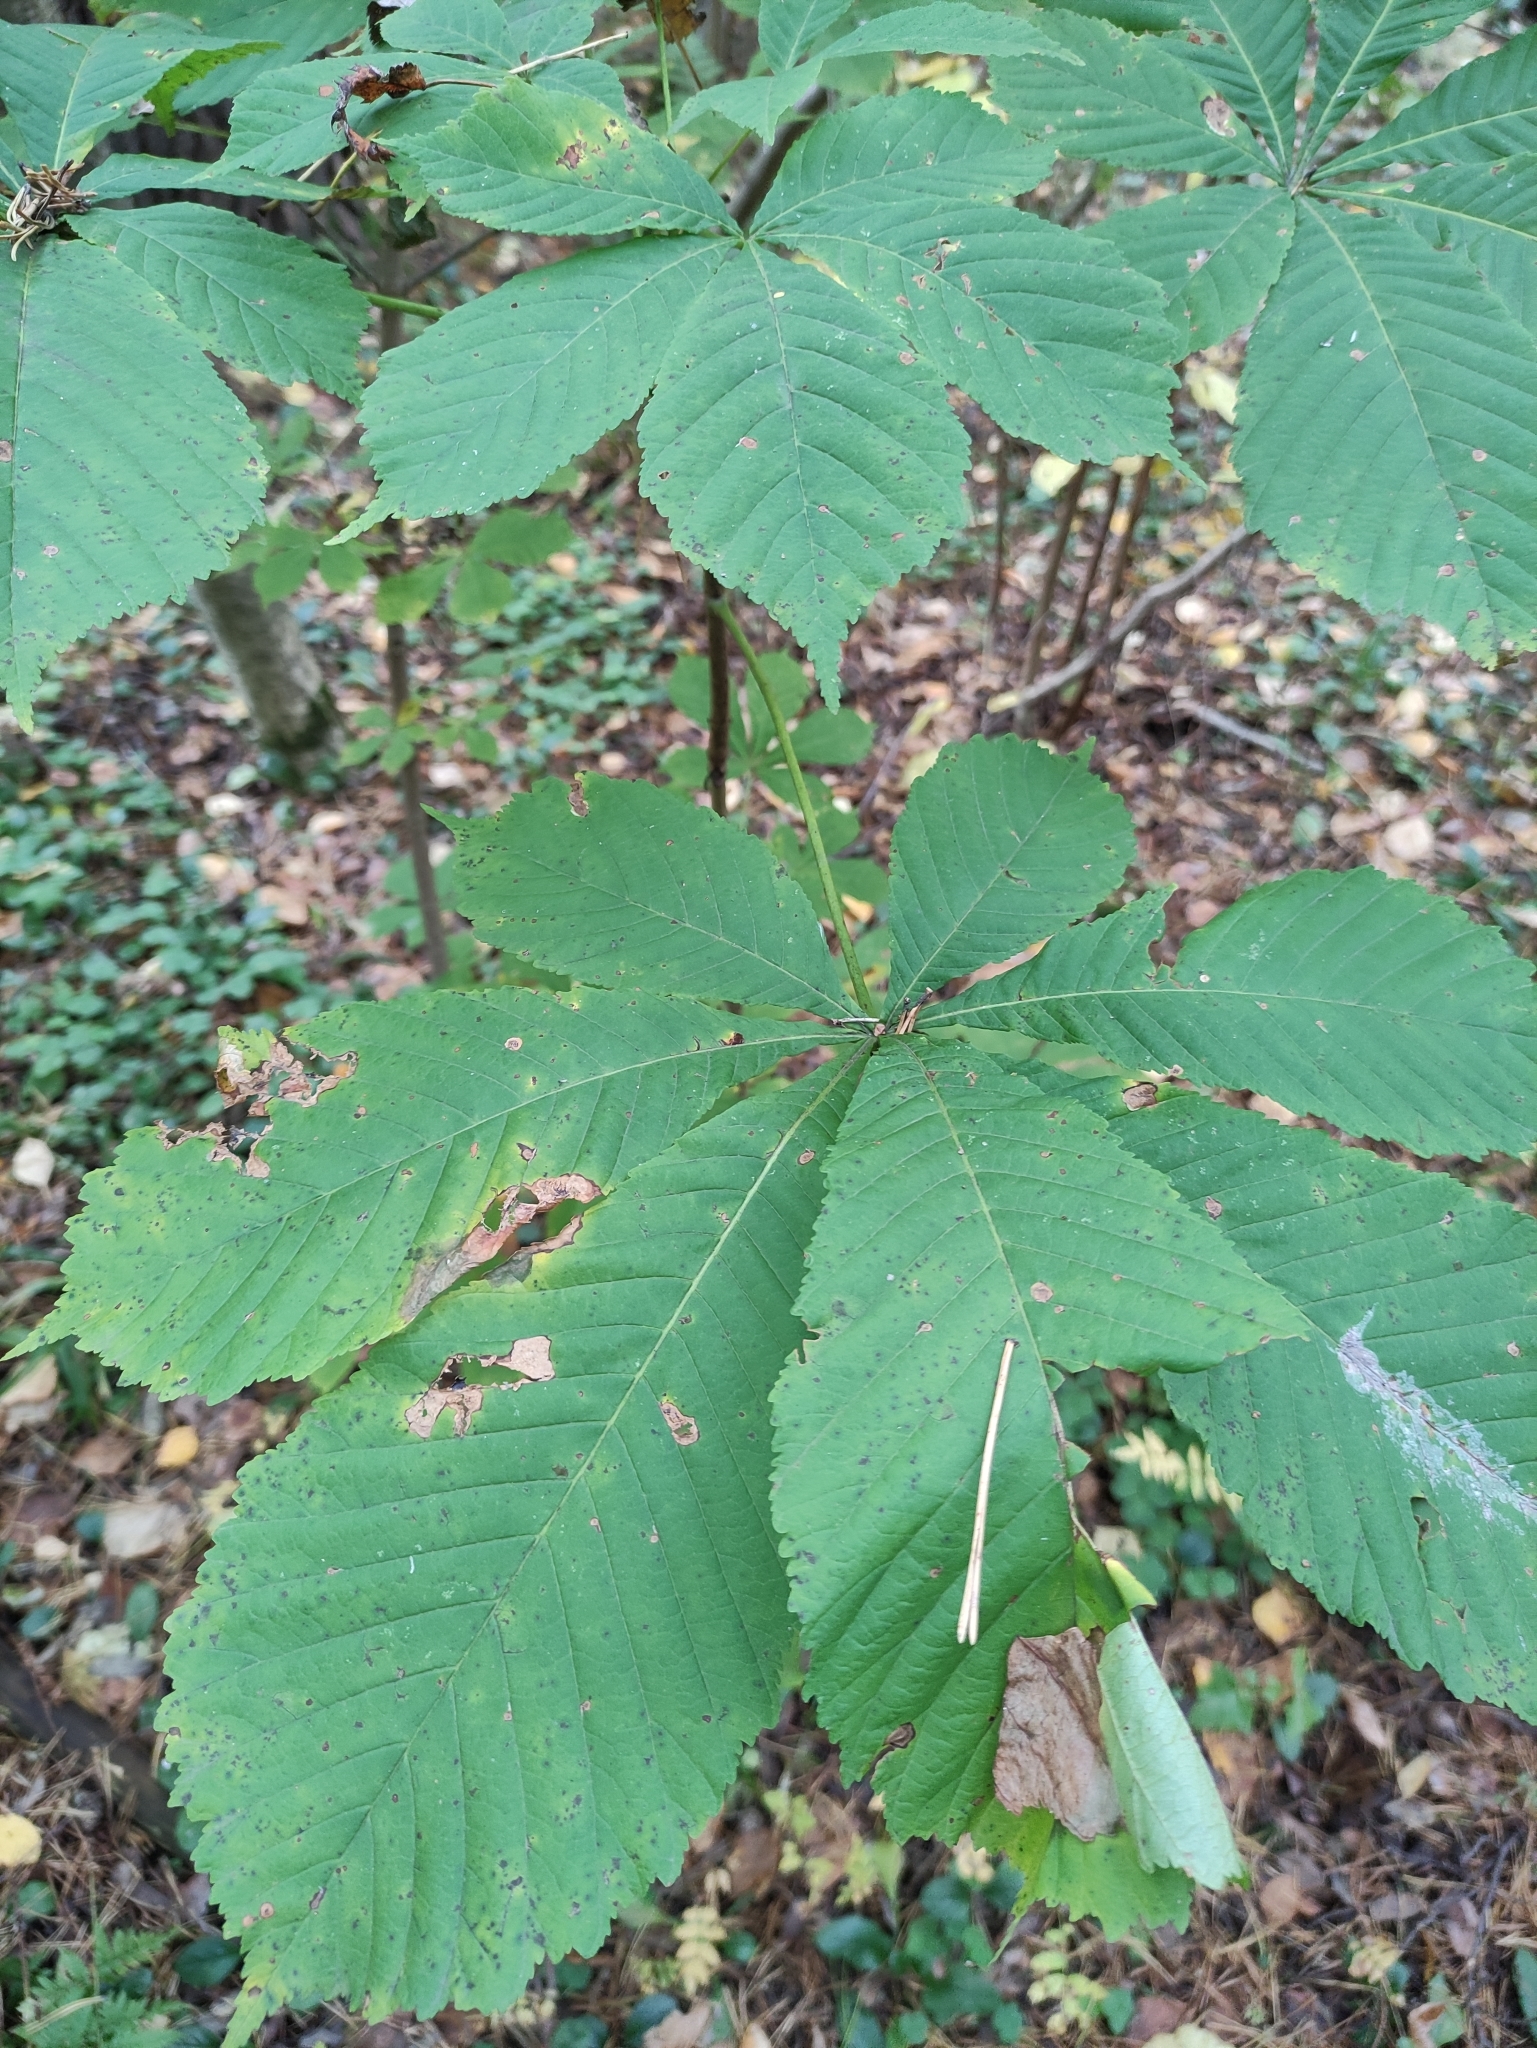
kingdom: Plantae
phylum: Tracheophyta
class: Magnoliopsida
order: Sapindales
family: Sapindaceae
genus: Aesculus
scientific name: Aesculus hippocastanum
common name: Horse-chestnut
